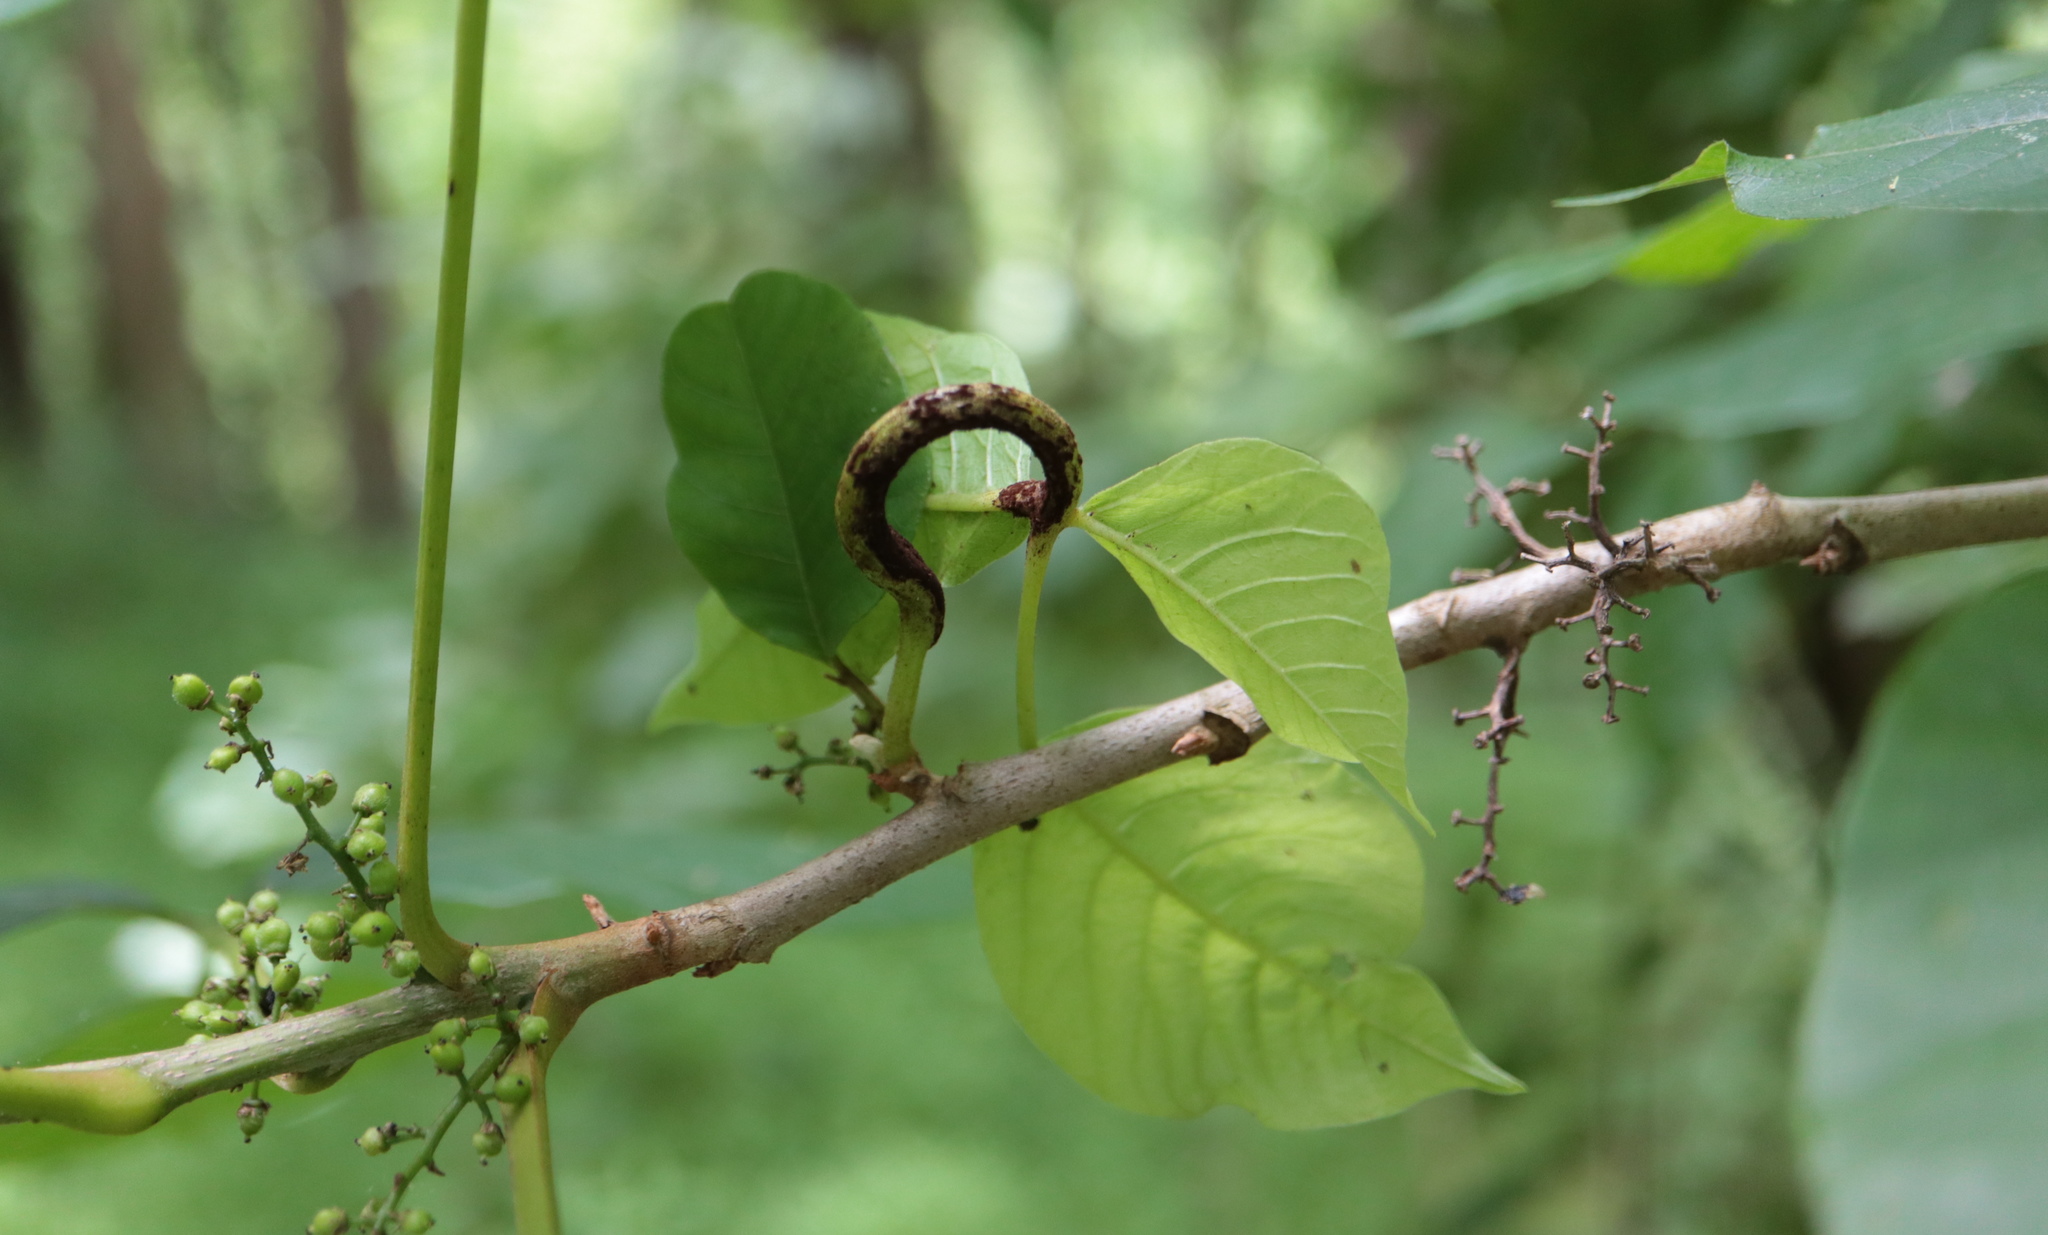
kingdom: Fungi
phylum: Basidiomycota
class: Pucciniomycetes
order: Pucciniales
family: Pileolariaceae
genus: Pileolaria
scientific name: Pileolaria brevipes
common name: Poison ivy rust
